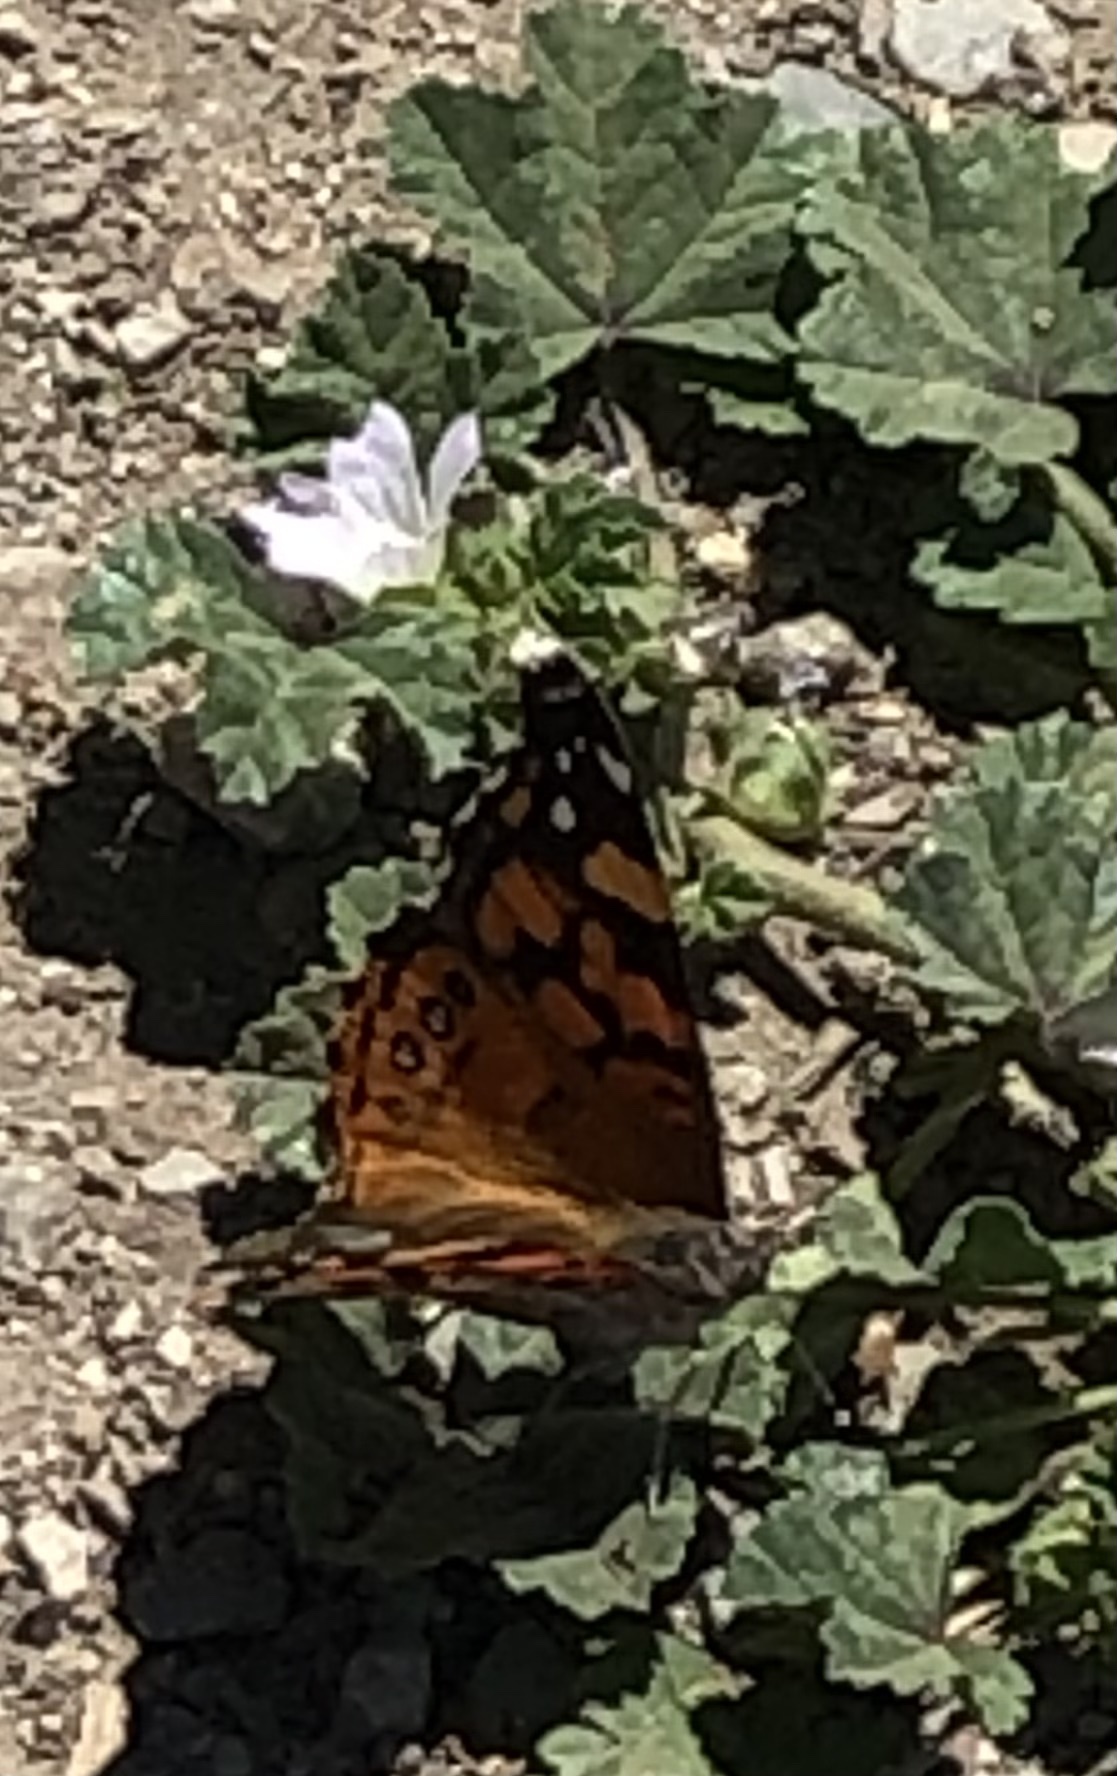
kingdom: Animalia
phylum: Arthropoda
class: Insecta
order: Lepidoptera
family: Nymphalidae
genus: Vanessa
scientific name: Vanessa annabella
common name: West coast lady
